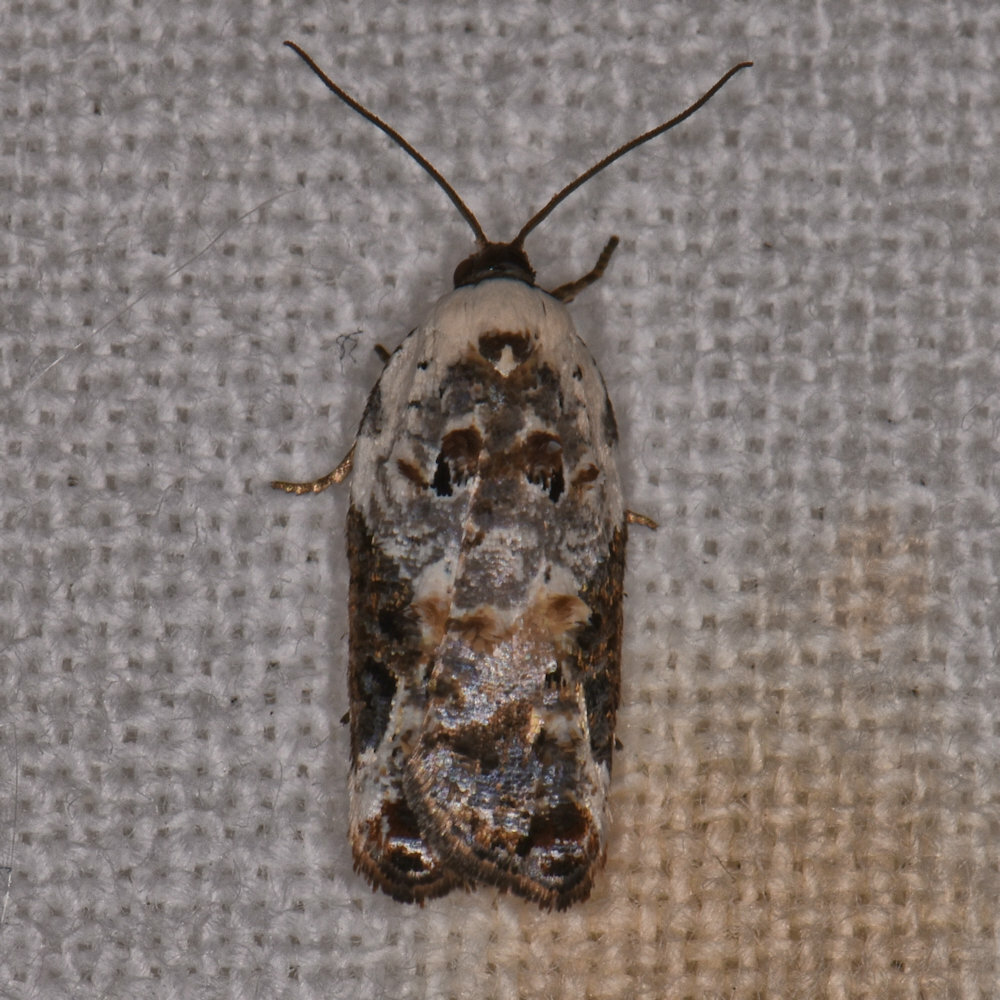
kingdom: Animalia
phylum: Arthropoda
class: Insecta
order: Lepidoptera
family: Tortricidae
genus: Acleris
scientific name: Acleris nivisellana
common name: Snowy-shouldered acleris moth
